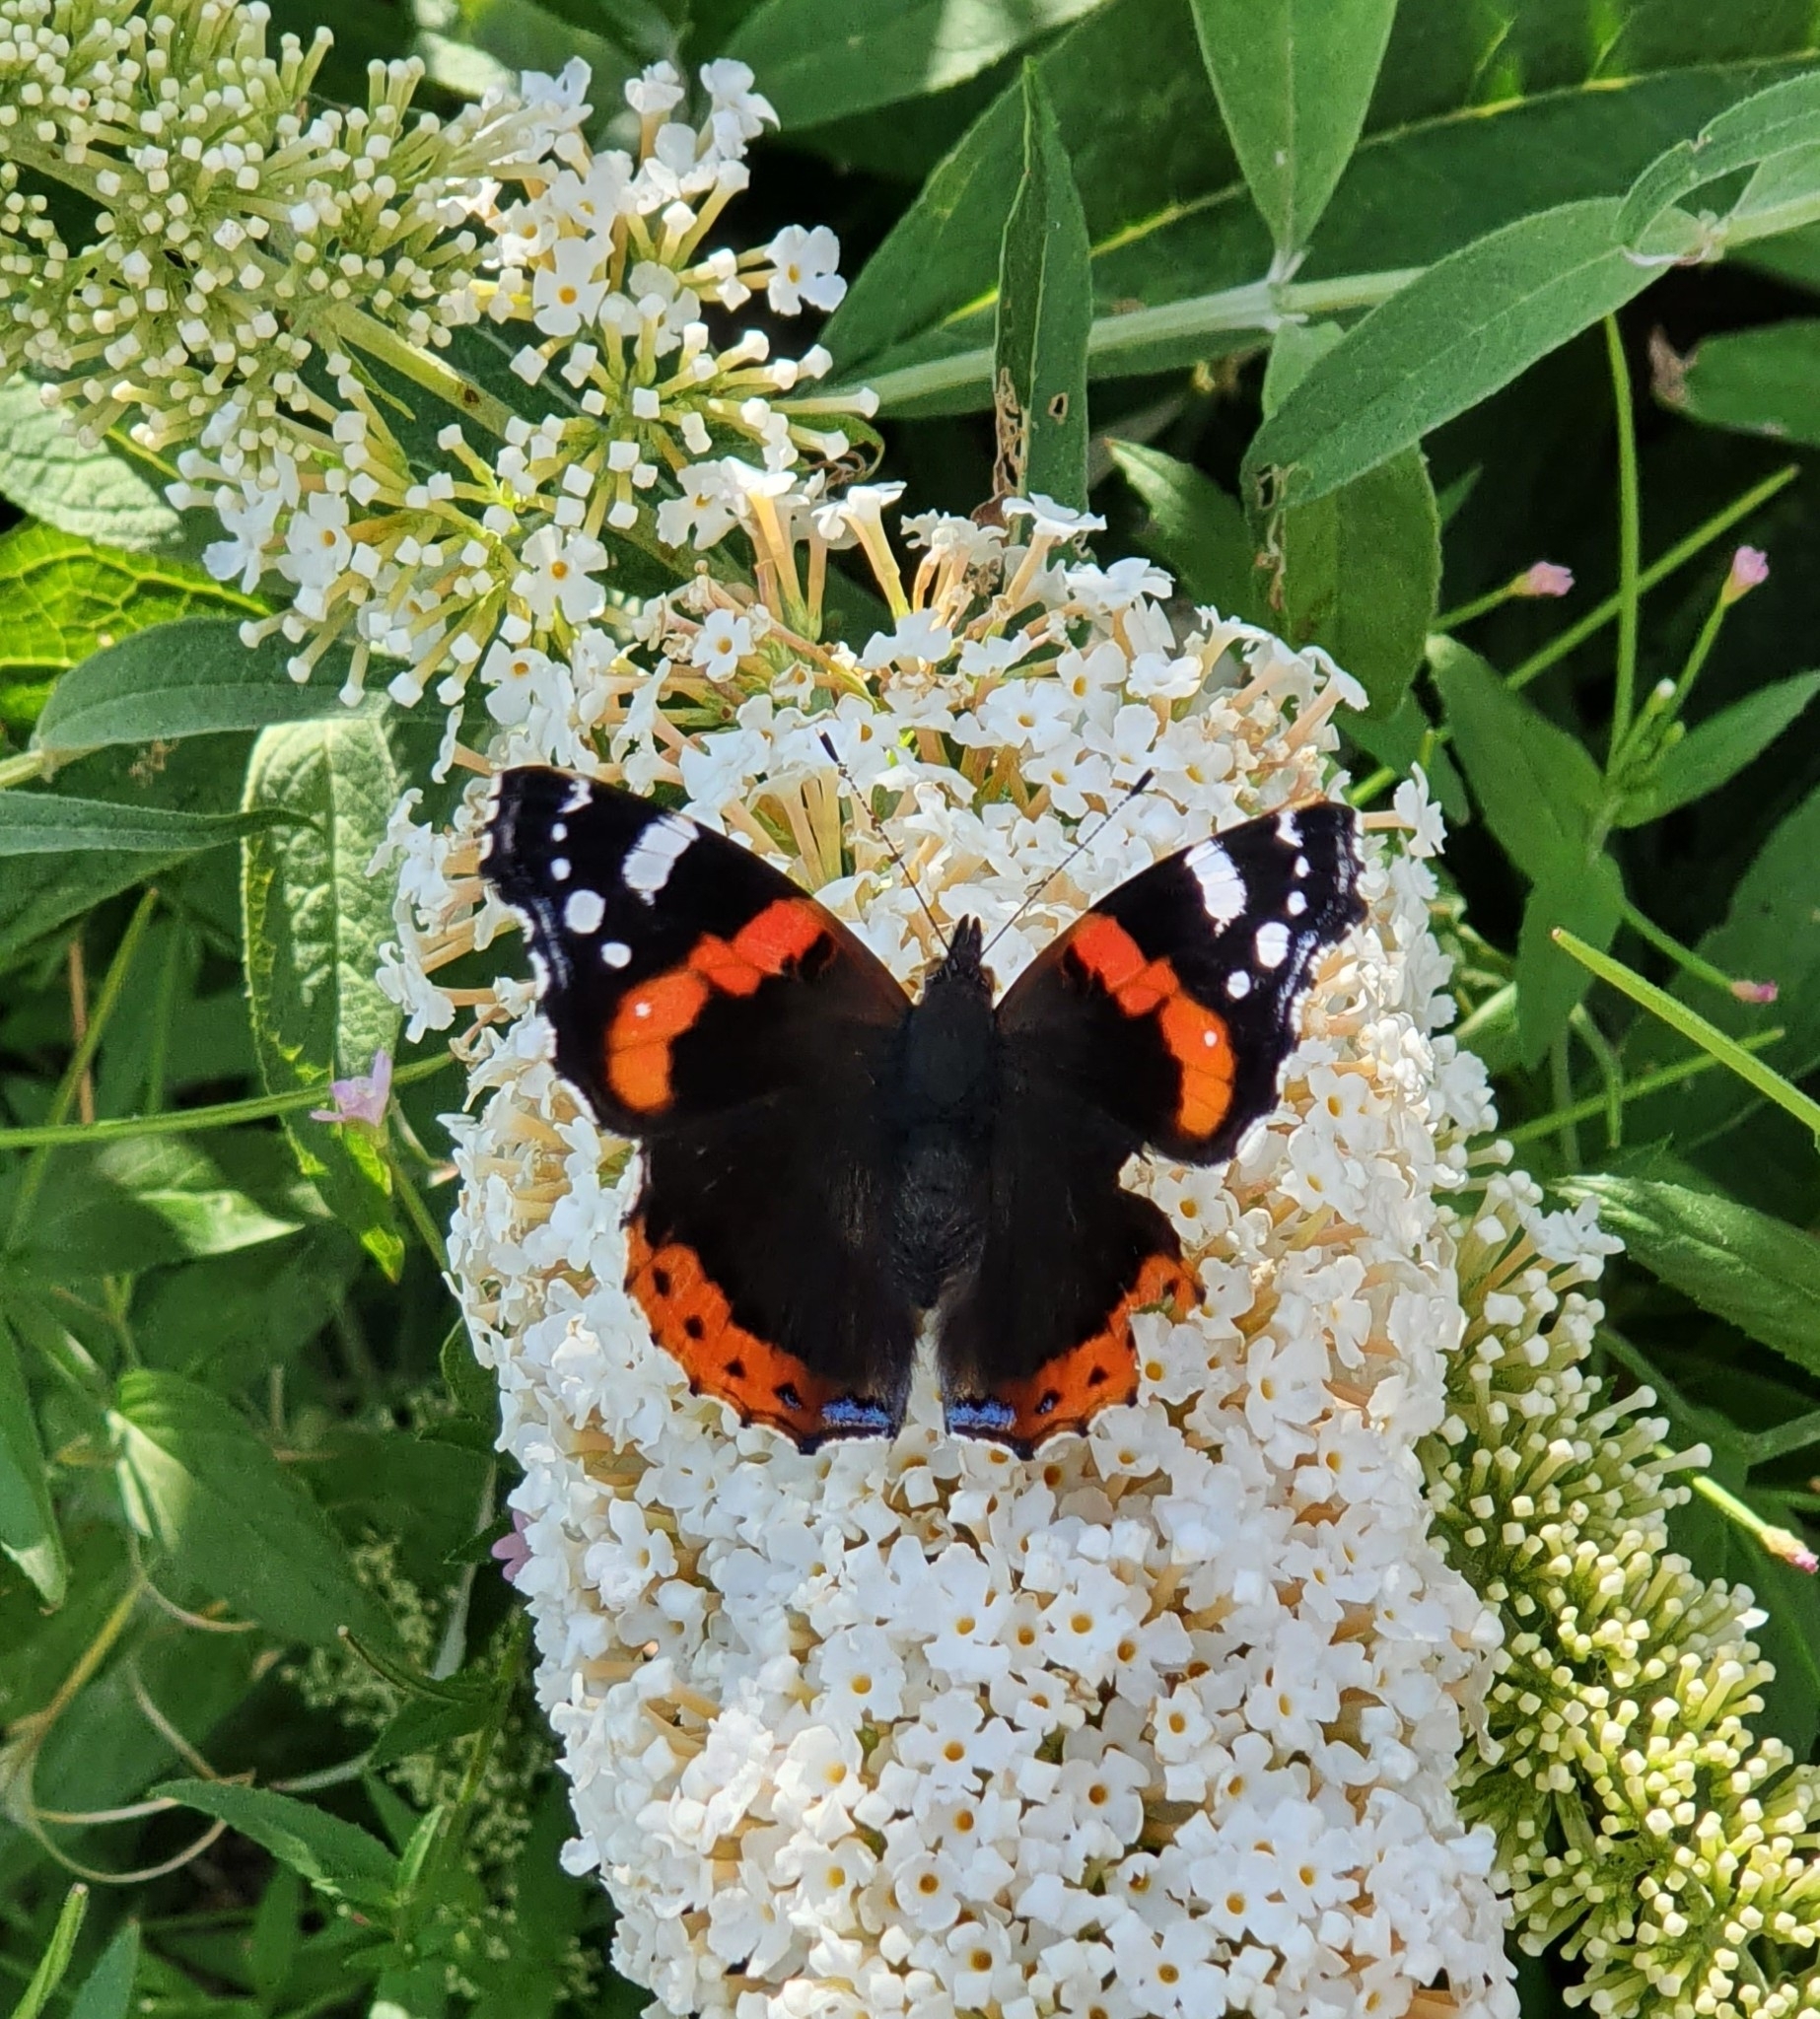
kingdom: Animalia
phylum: Arthropoda
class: Insecta
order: Lepidoptera
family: Nymphalidae
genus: Vanessa
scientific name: Vanessa atalanta
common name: Red admiral
